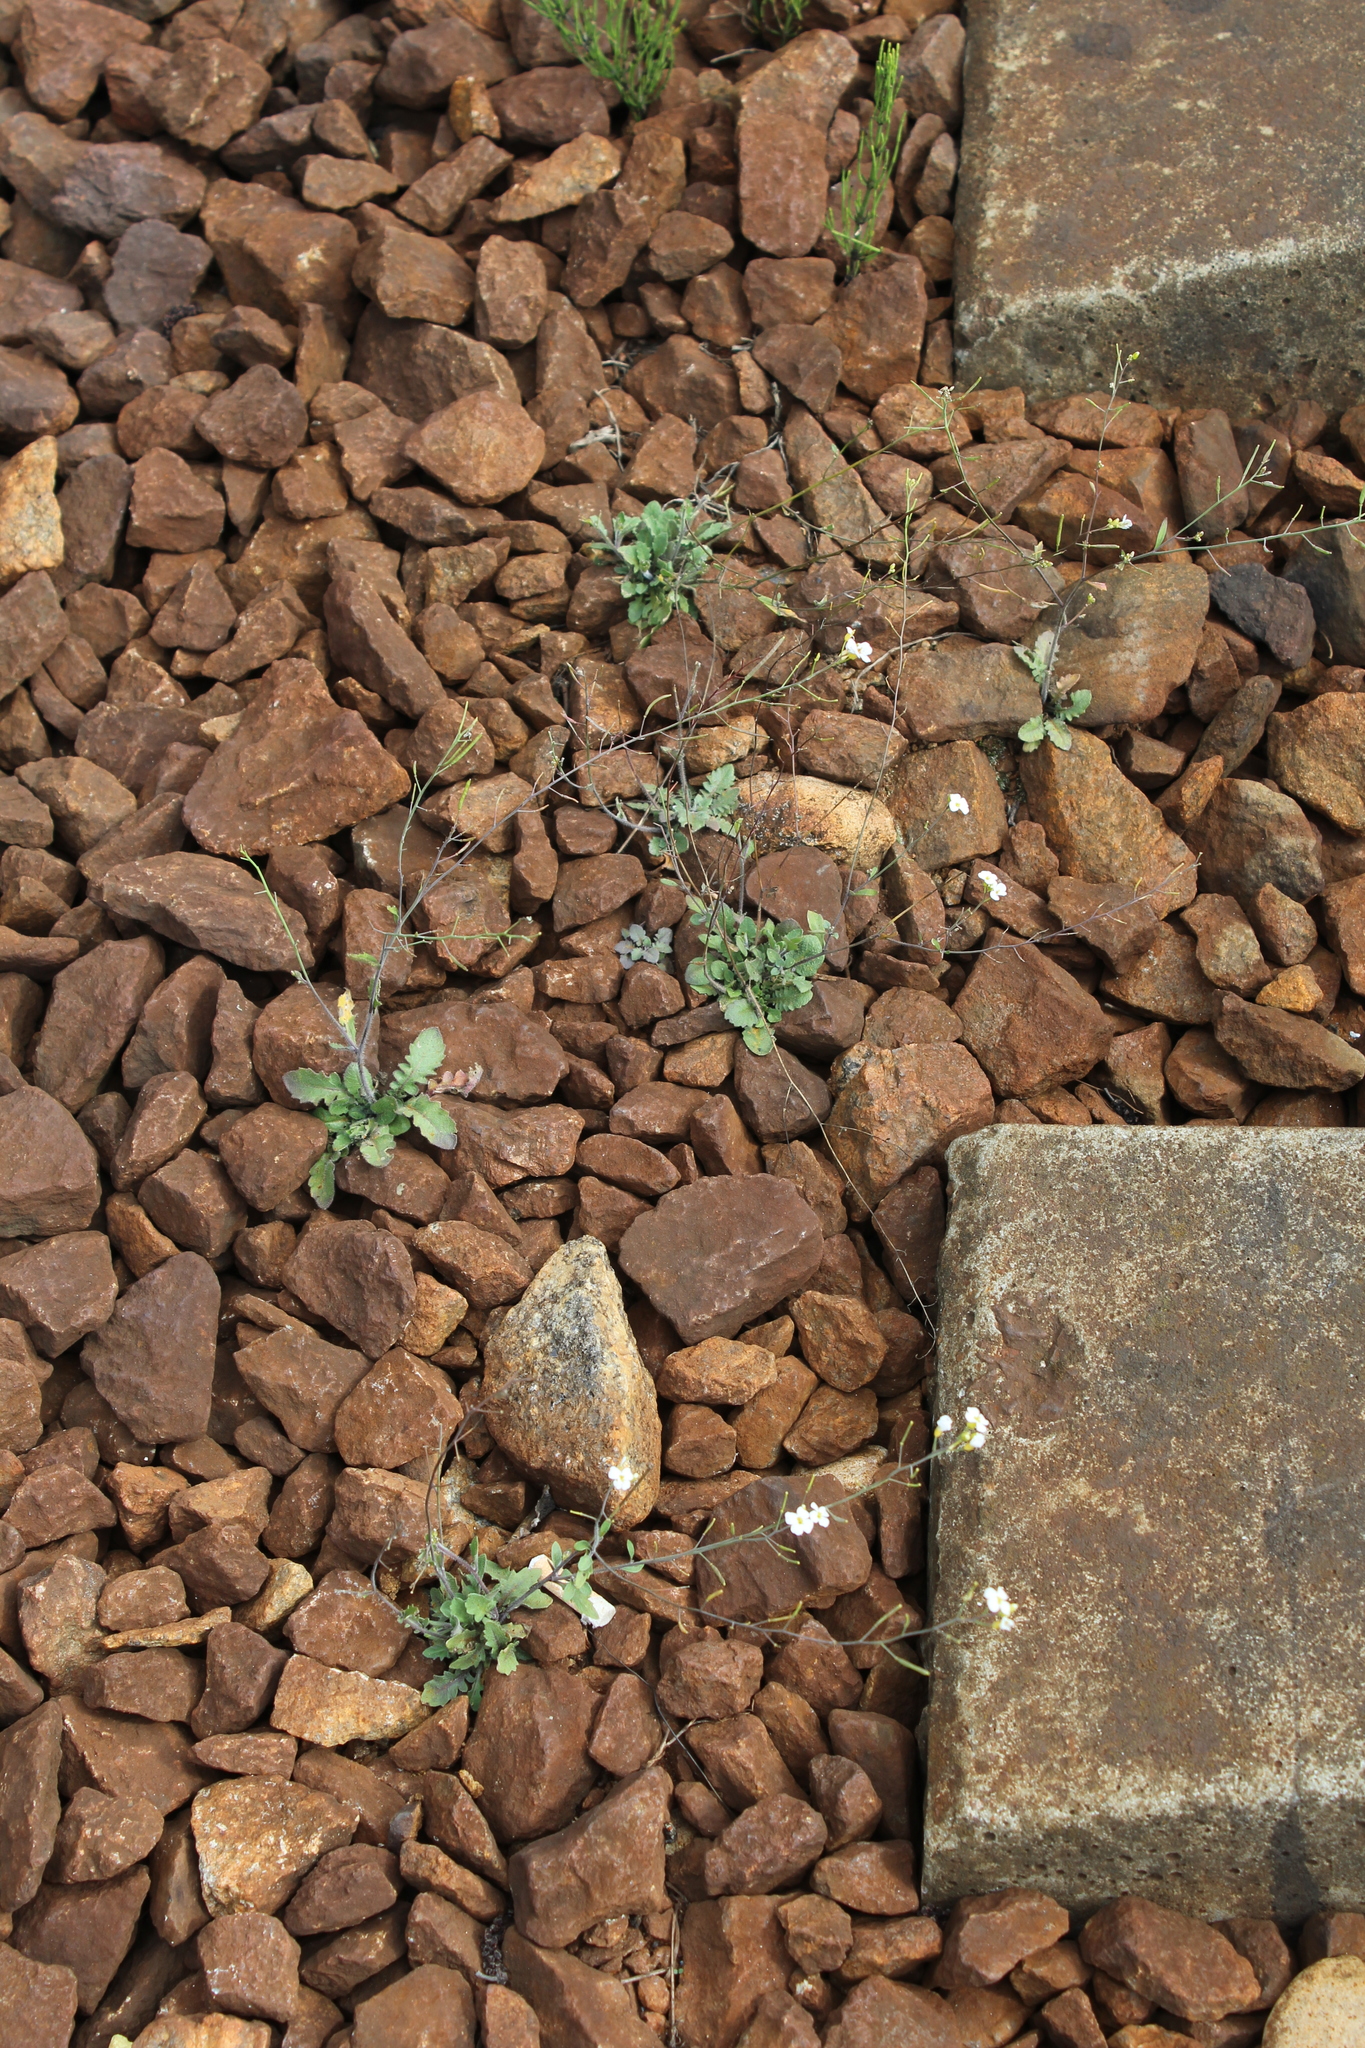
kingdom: Plantae
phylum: Tracheophyta
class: Magnoliopsida
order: Brassicales
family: Brassicaceae
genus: Arabidopsis
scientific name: Arabidopsis arenosa
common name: Sand rock-cress
